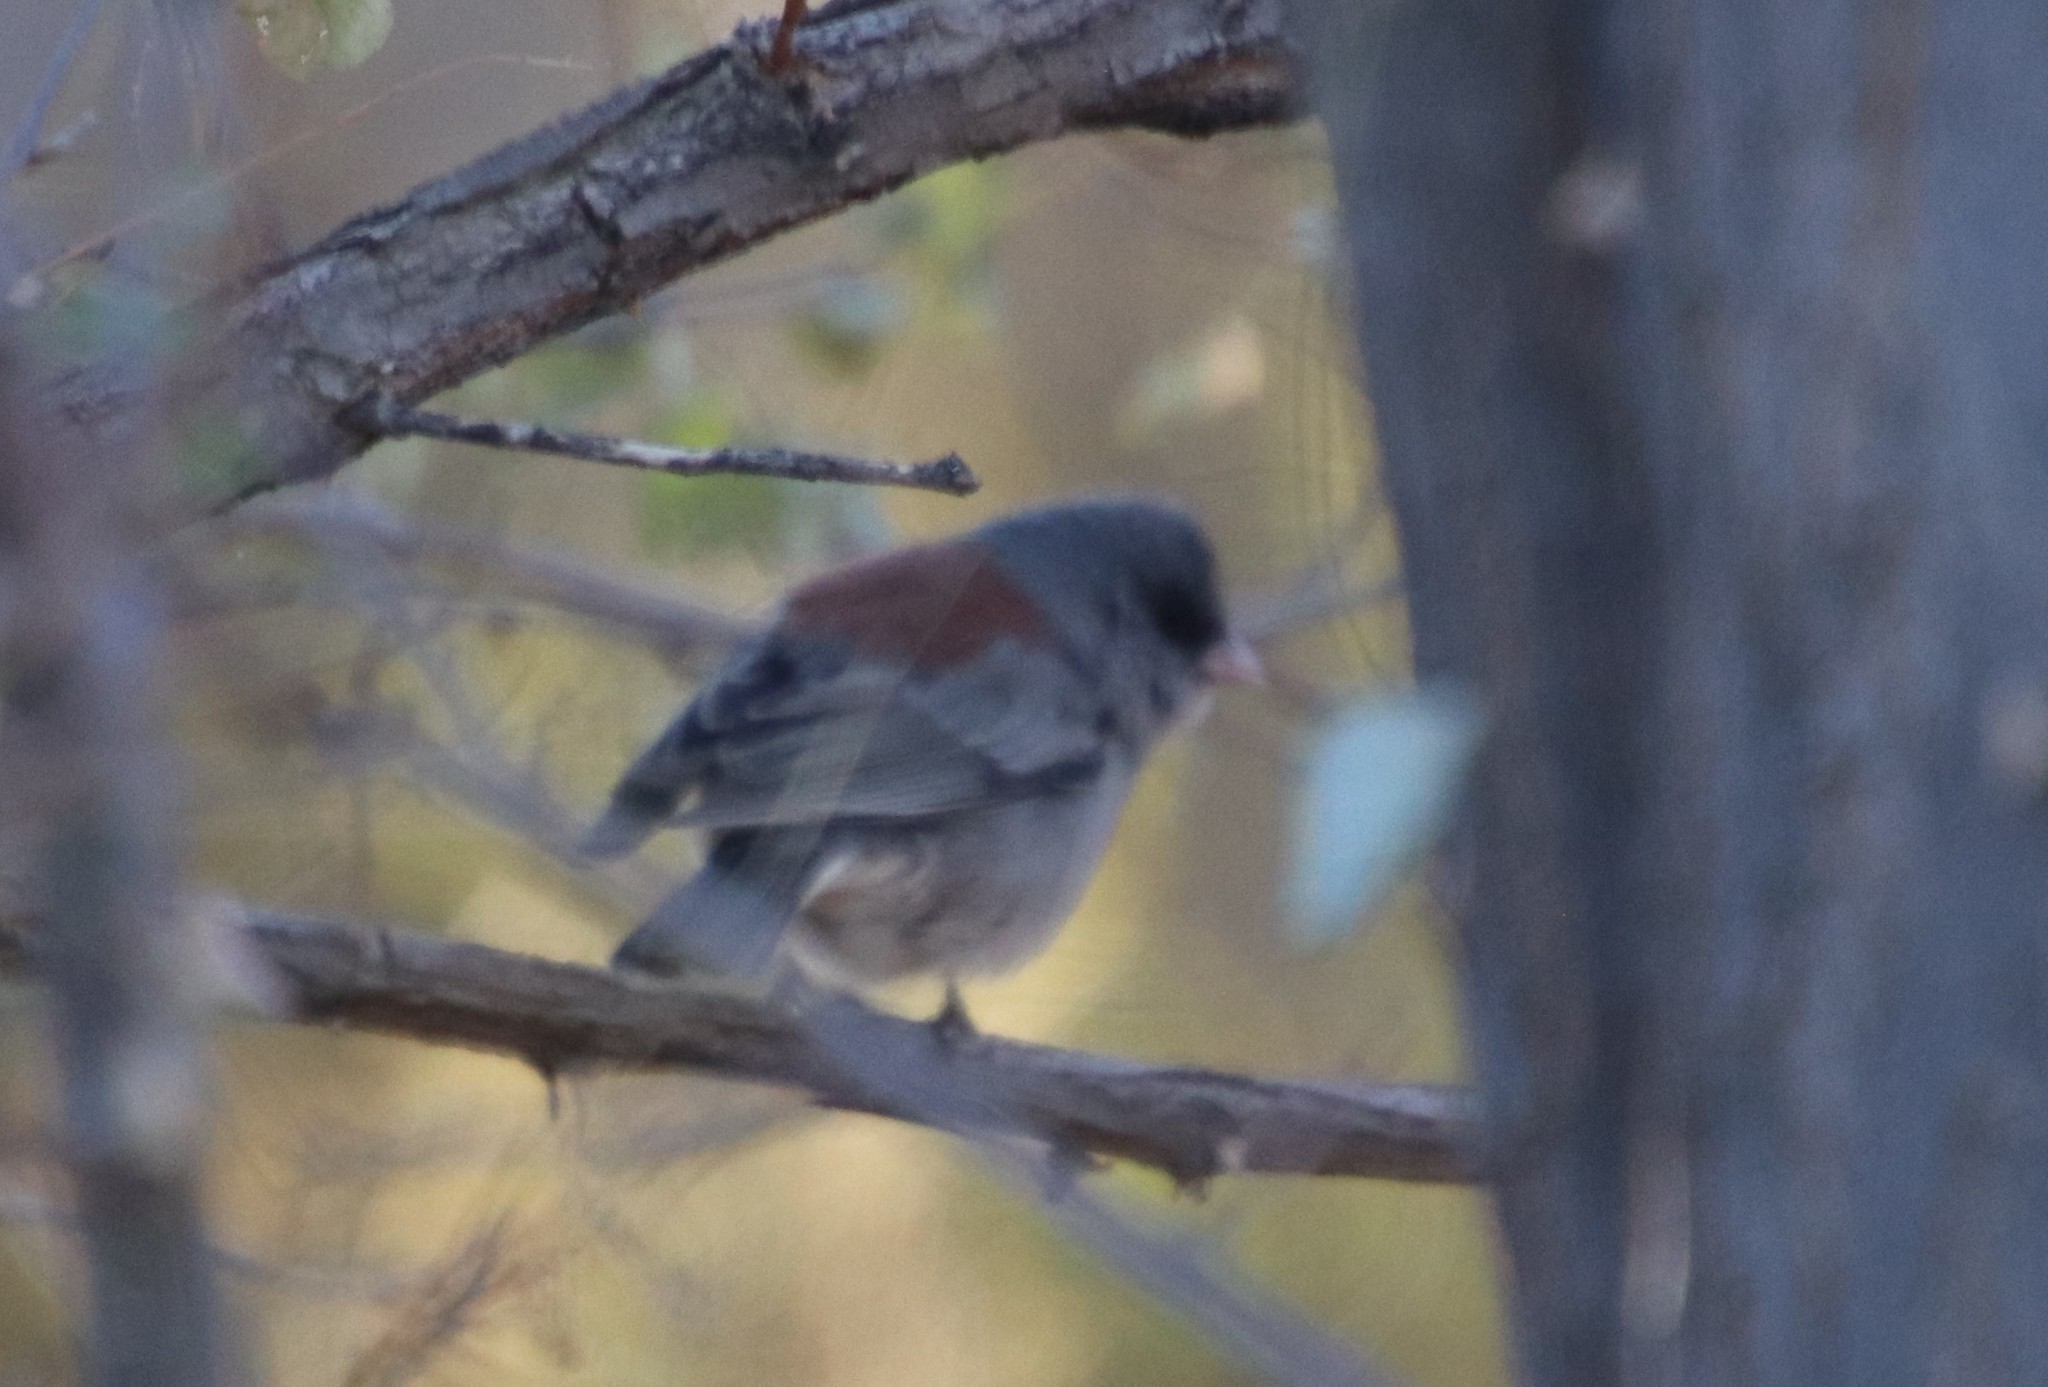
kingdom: Animalia
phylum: Chordata
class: Aves
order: Passeriformes
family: Passerellidae
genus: Junco
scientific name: Junco hyemalis
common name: Dark-eyed junco
